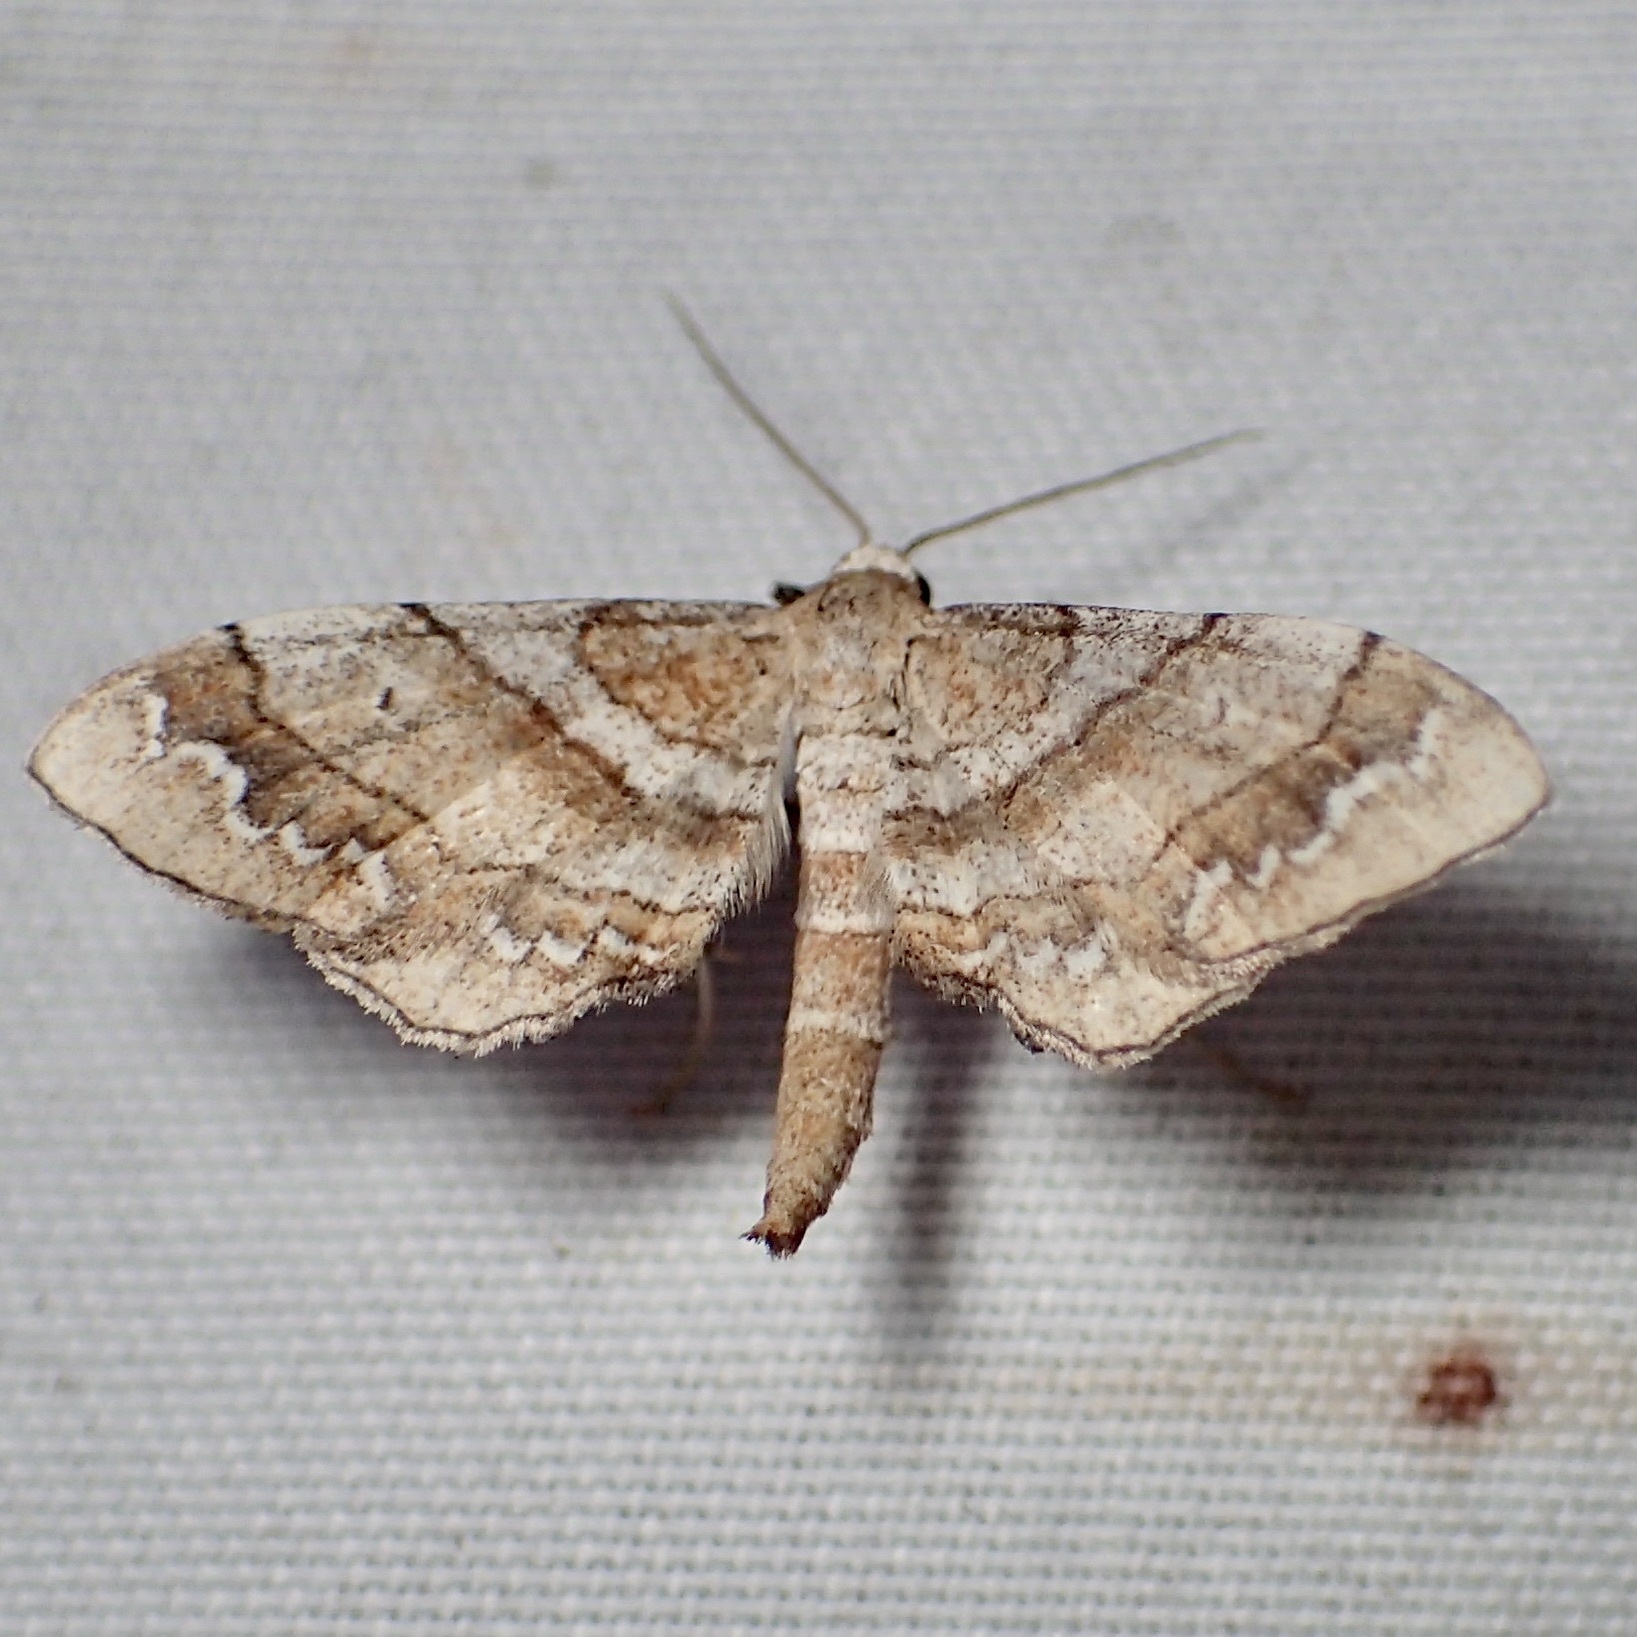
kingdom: Animalia
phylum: Arthropoda
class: Insecta
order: Lepidoptera
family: Geometridae
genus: Odontoptila
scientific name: Odontoptila obrimo
